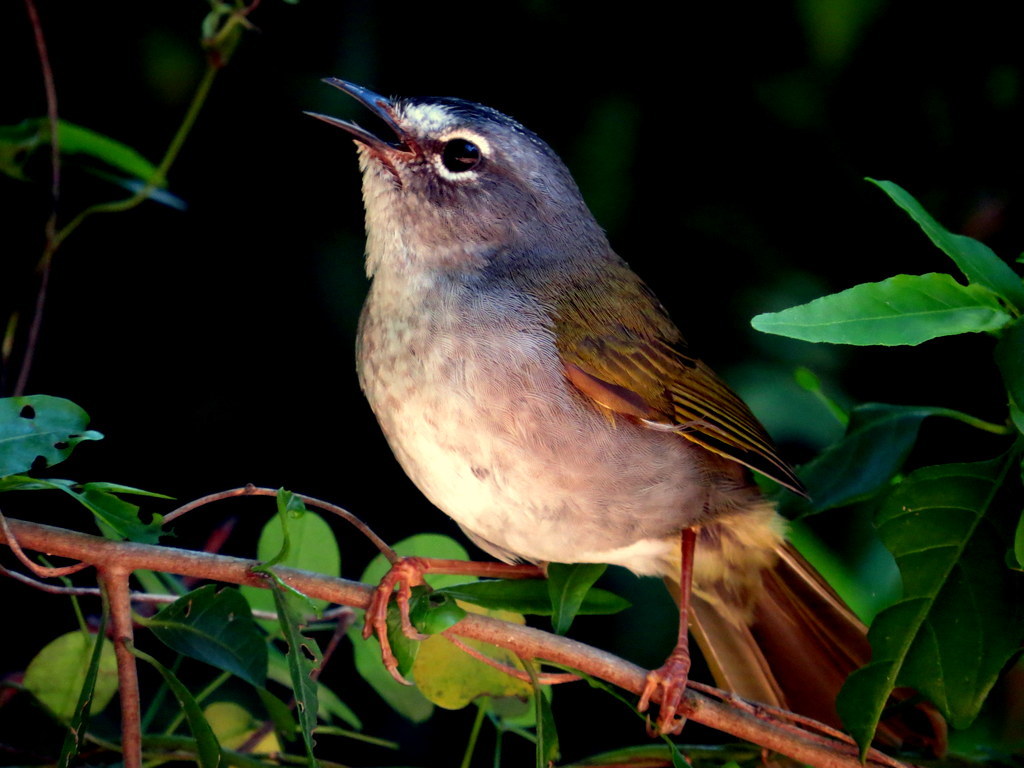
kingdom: Animalia
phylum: Chordata
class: Aves
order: Passeriformes
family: Parulidae
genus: Myiothlypis
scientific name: Myiothlypis leucoblephara
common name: White-rimmed warbler
